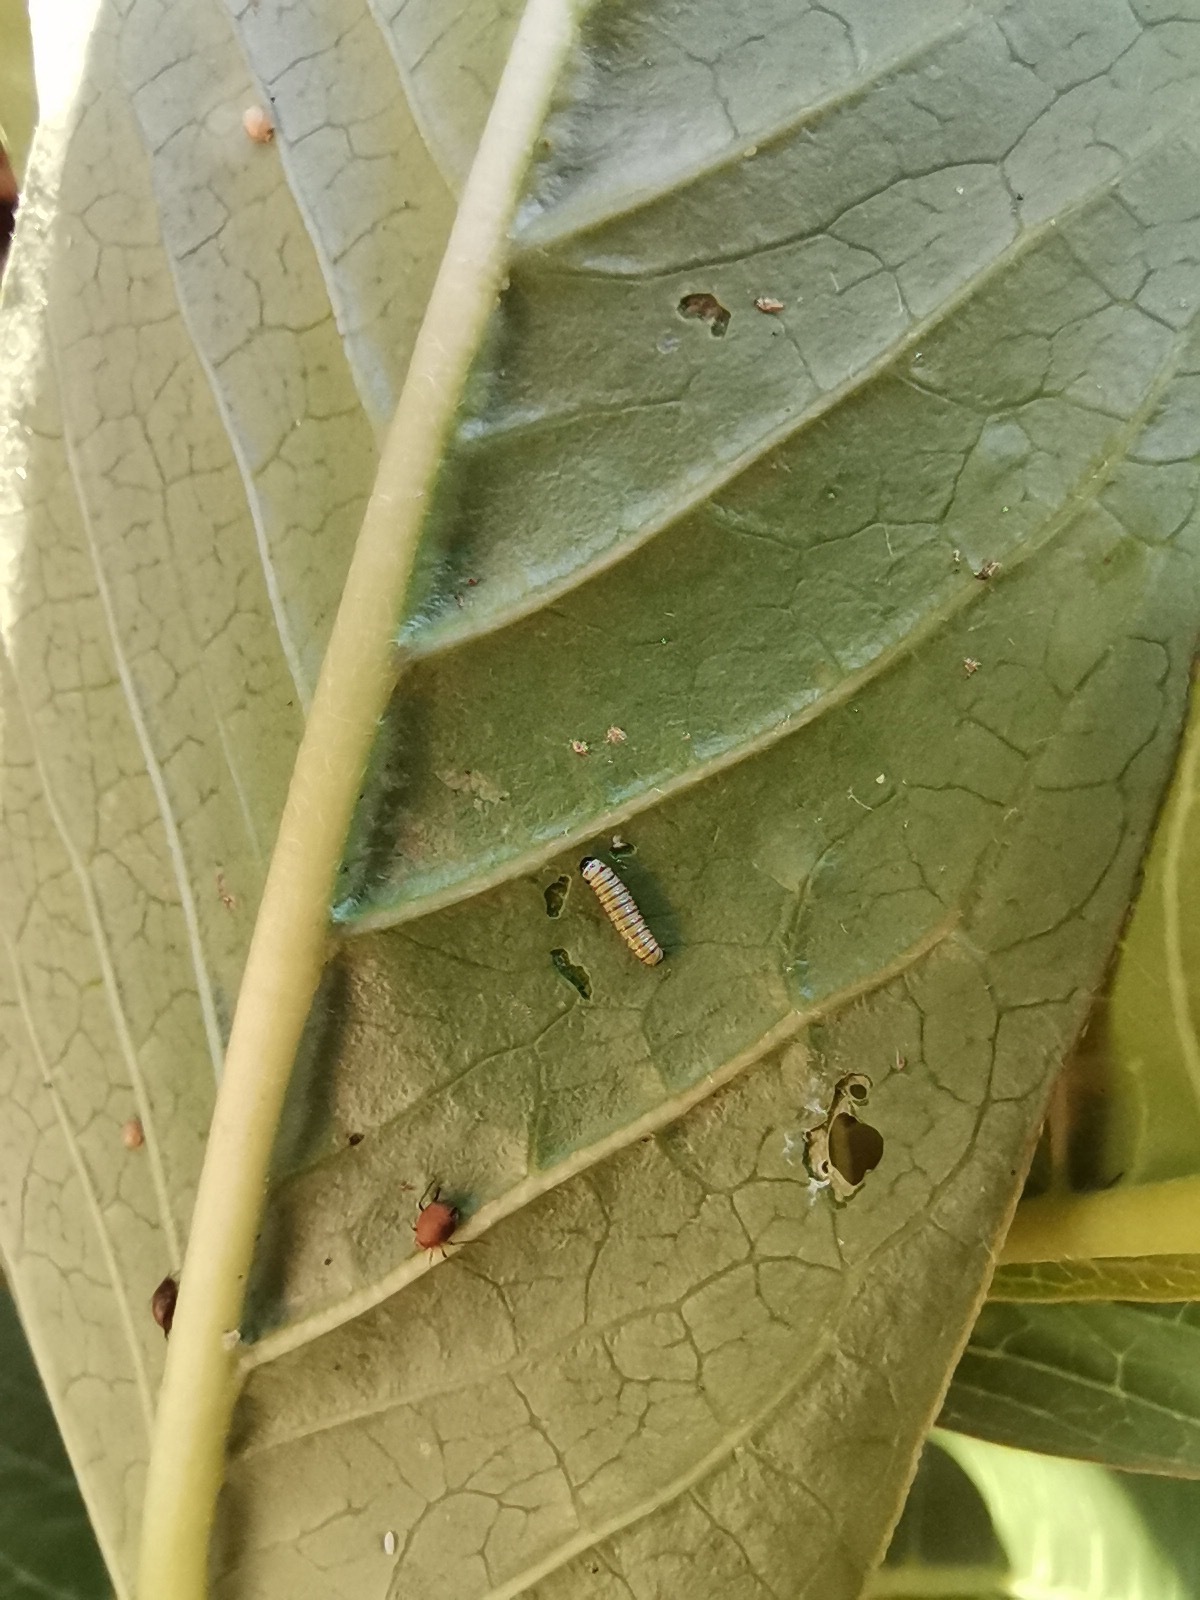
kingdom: Animalia
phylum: Arthropoda
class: Insecta
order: Lepidoptera
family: Nymphalidae
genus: Danaus
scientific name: Danaus plexippus
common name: Monarch
